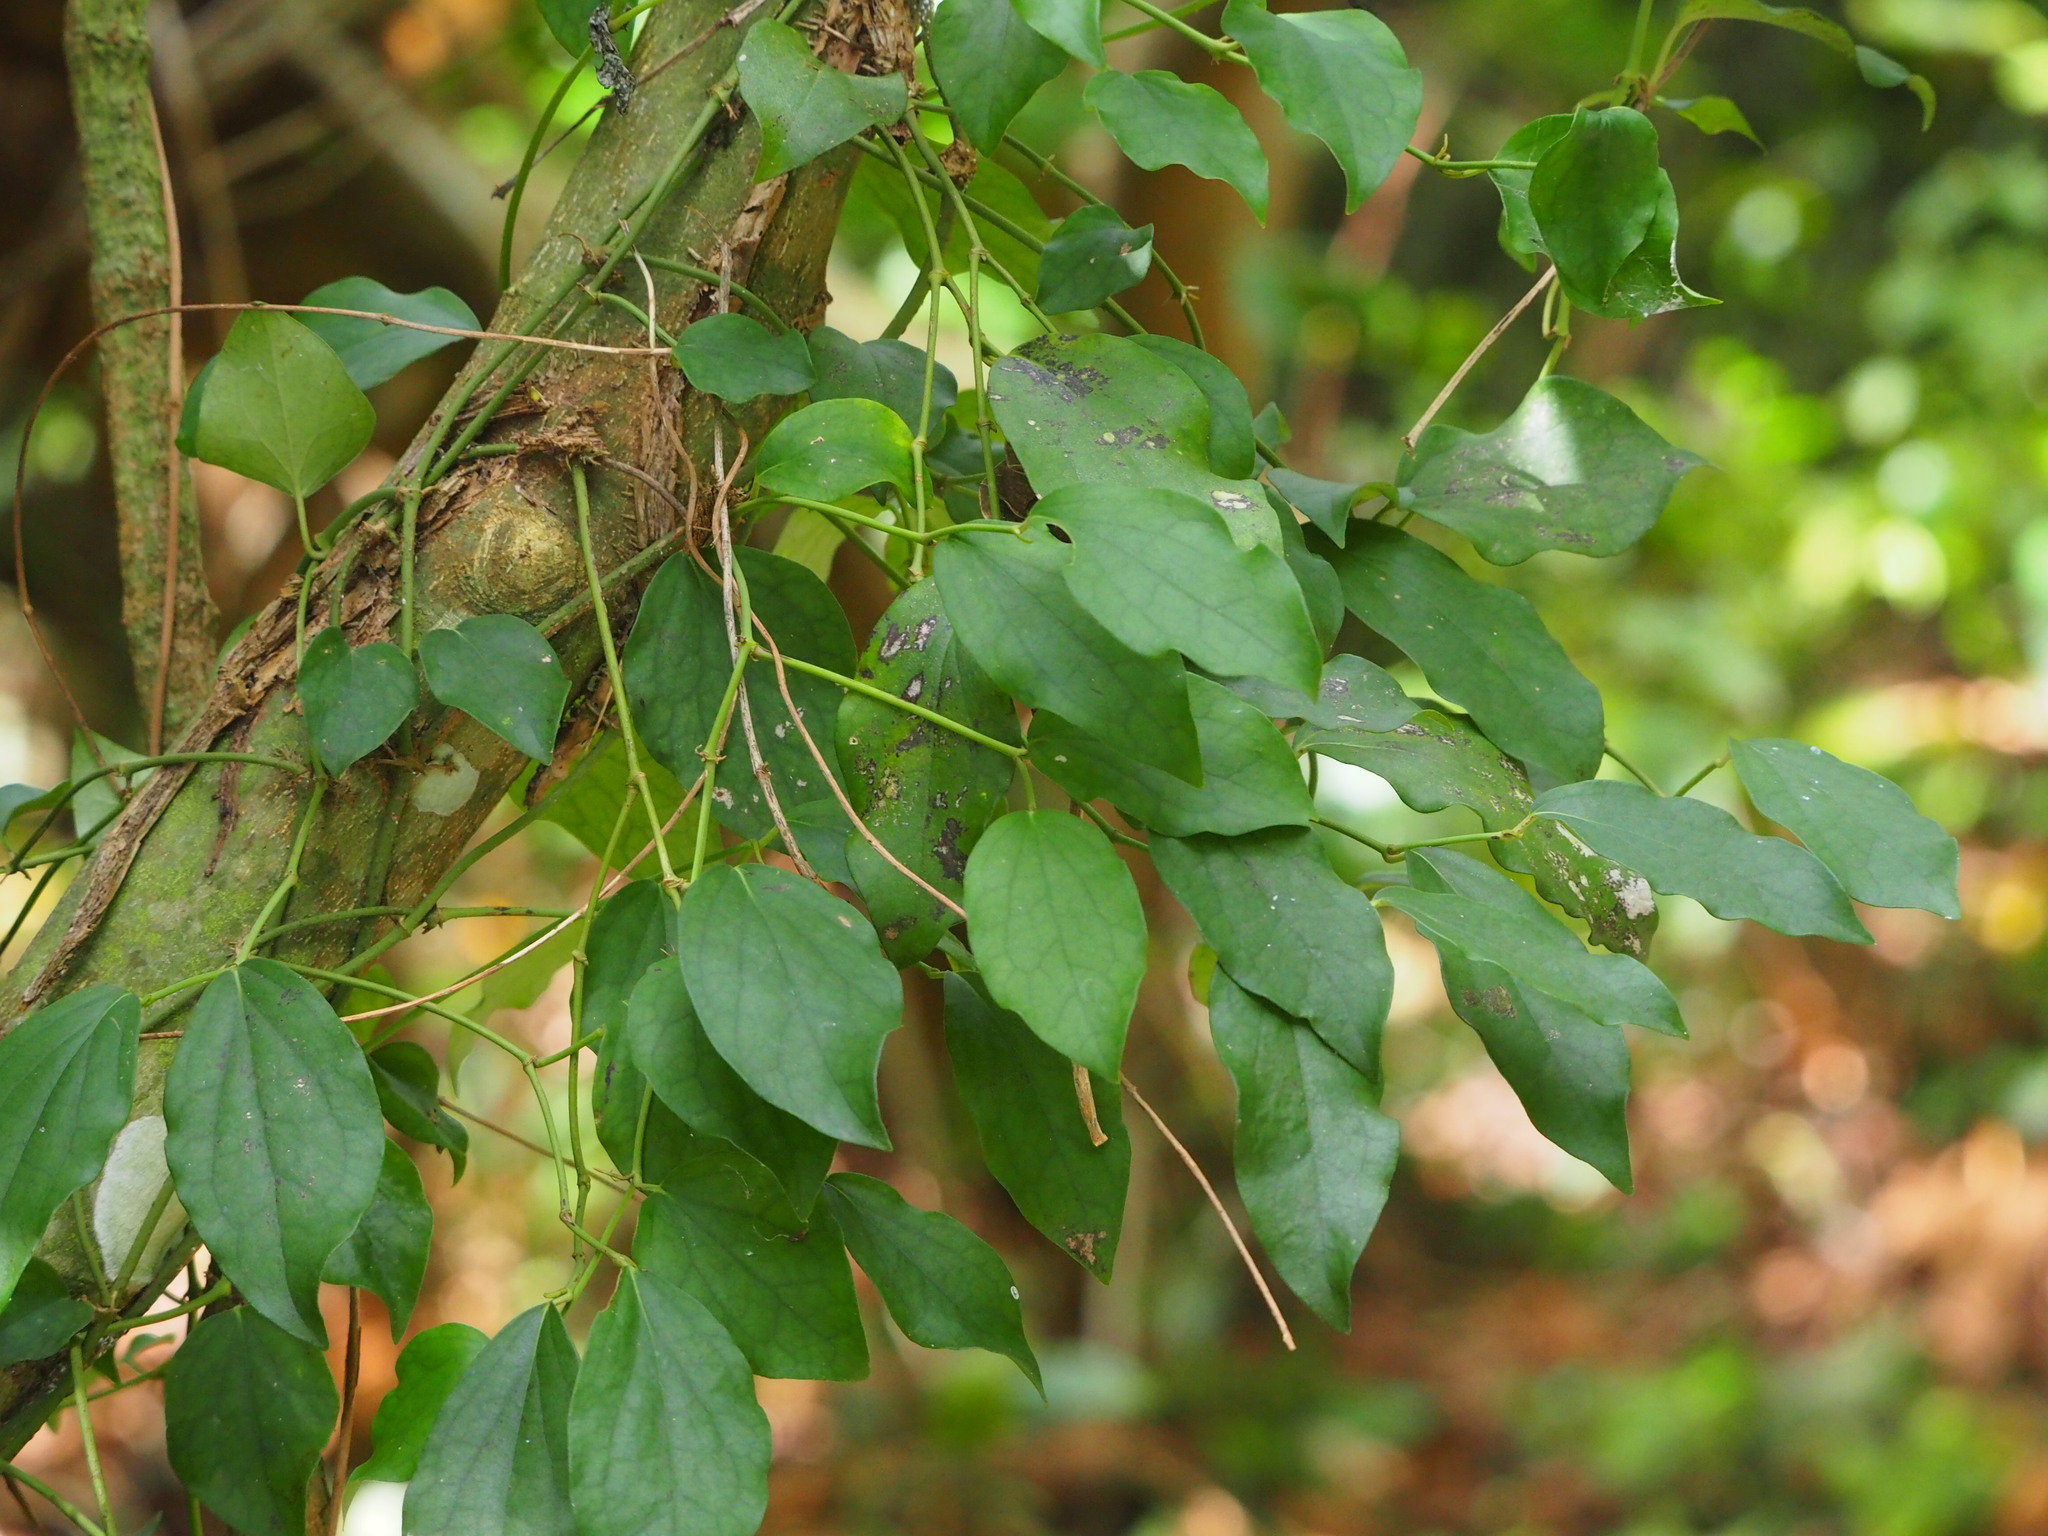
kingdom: Plantae
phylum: Tracheophyta
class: Magnoliopsida
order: Piperales
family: Piperaceae
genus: Piper
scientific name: Piper kadsura
